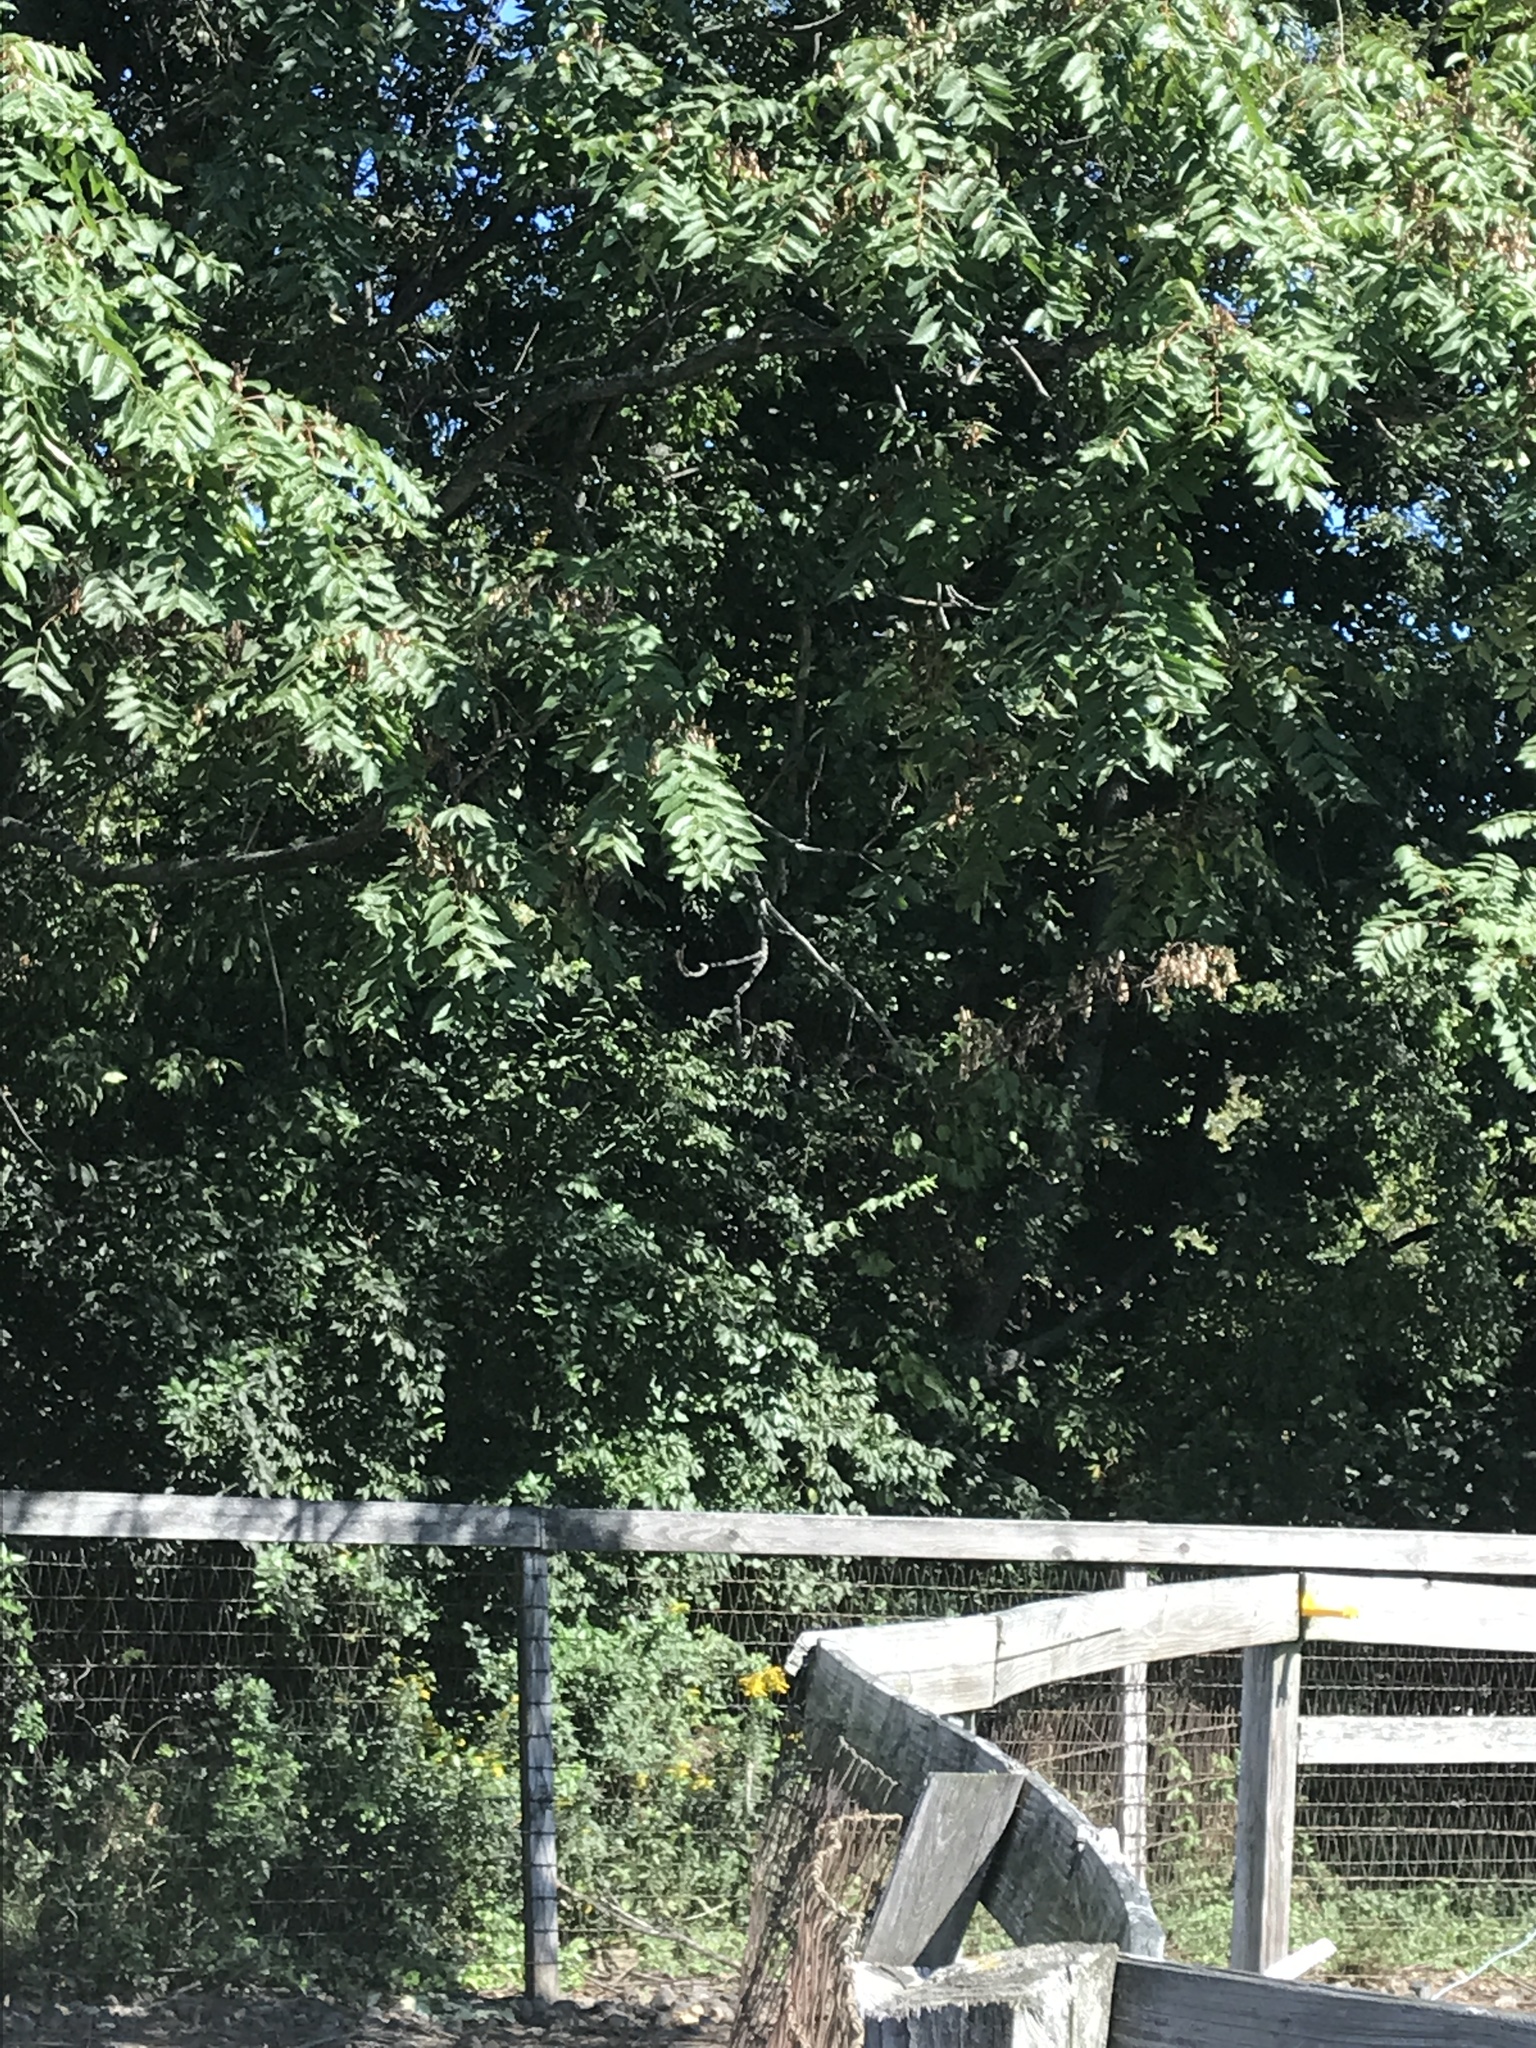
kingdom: Plantae
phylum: Tracheophyta
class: Magnoliopsida
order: Sapindales
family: Simaroubaceae
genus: Ailanthus
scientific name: Ailanthus altissima
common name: Tree-of-heaven
